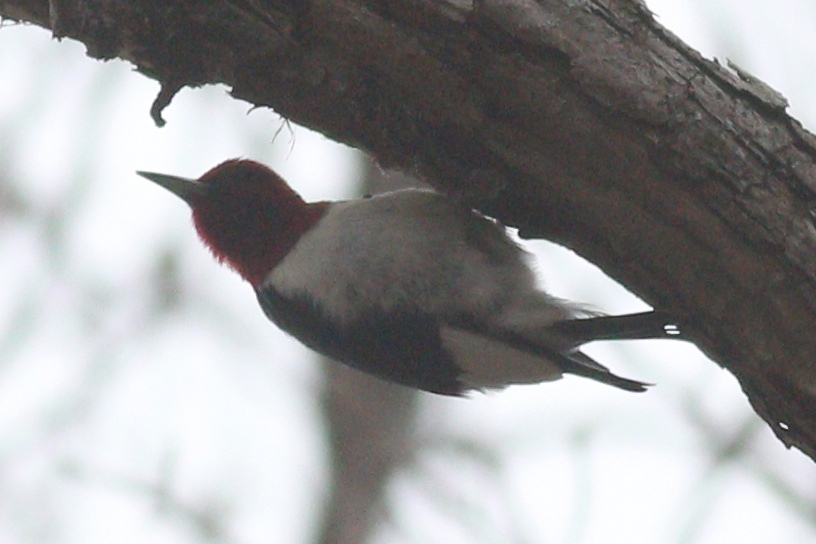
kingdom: Animalia
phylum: Chordata
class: Aves
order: Piciformes
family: Picidae
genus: Melanerpes
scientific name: Melanerpes erythrocephalus
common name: Red-headed woodpecker
